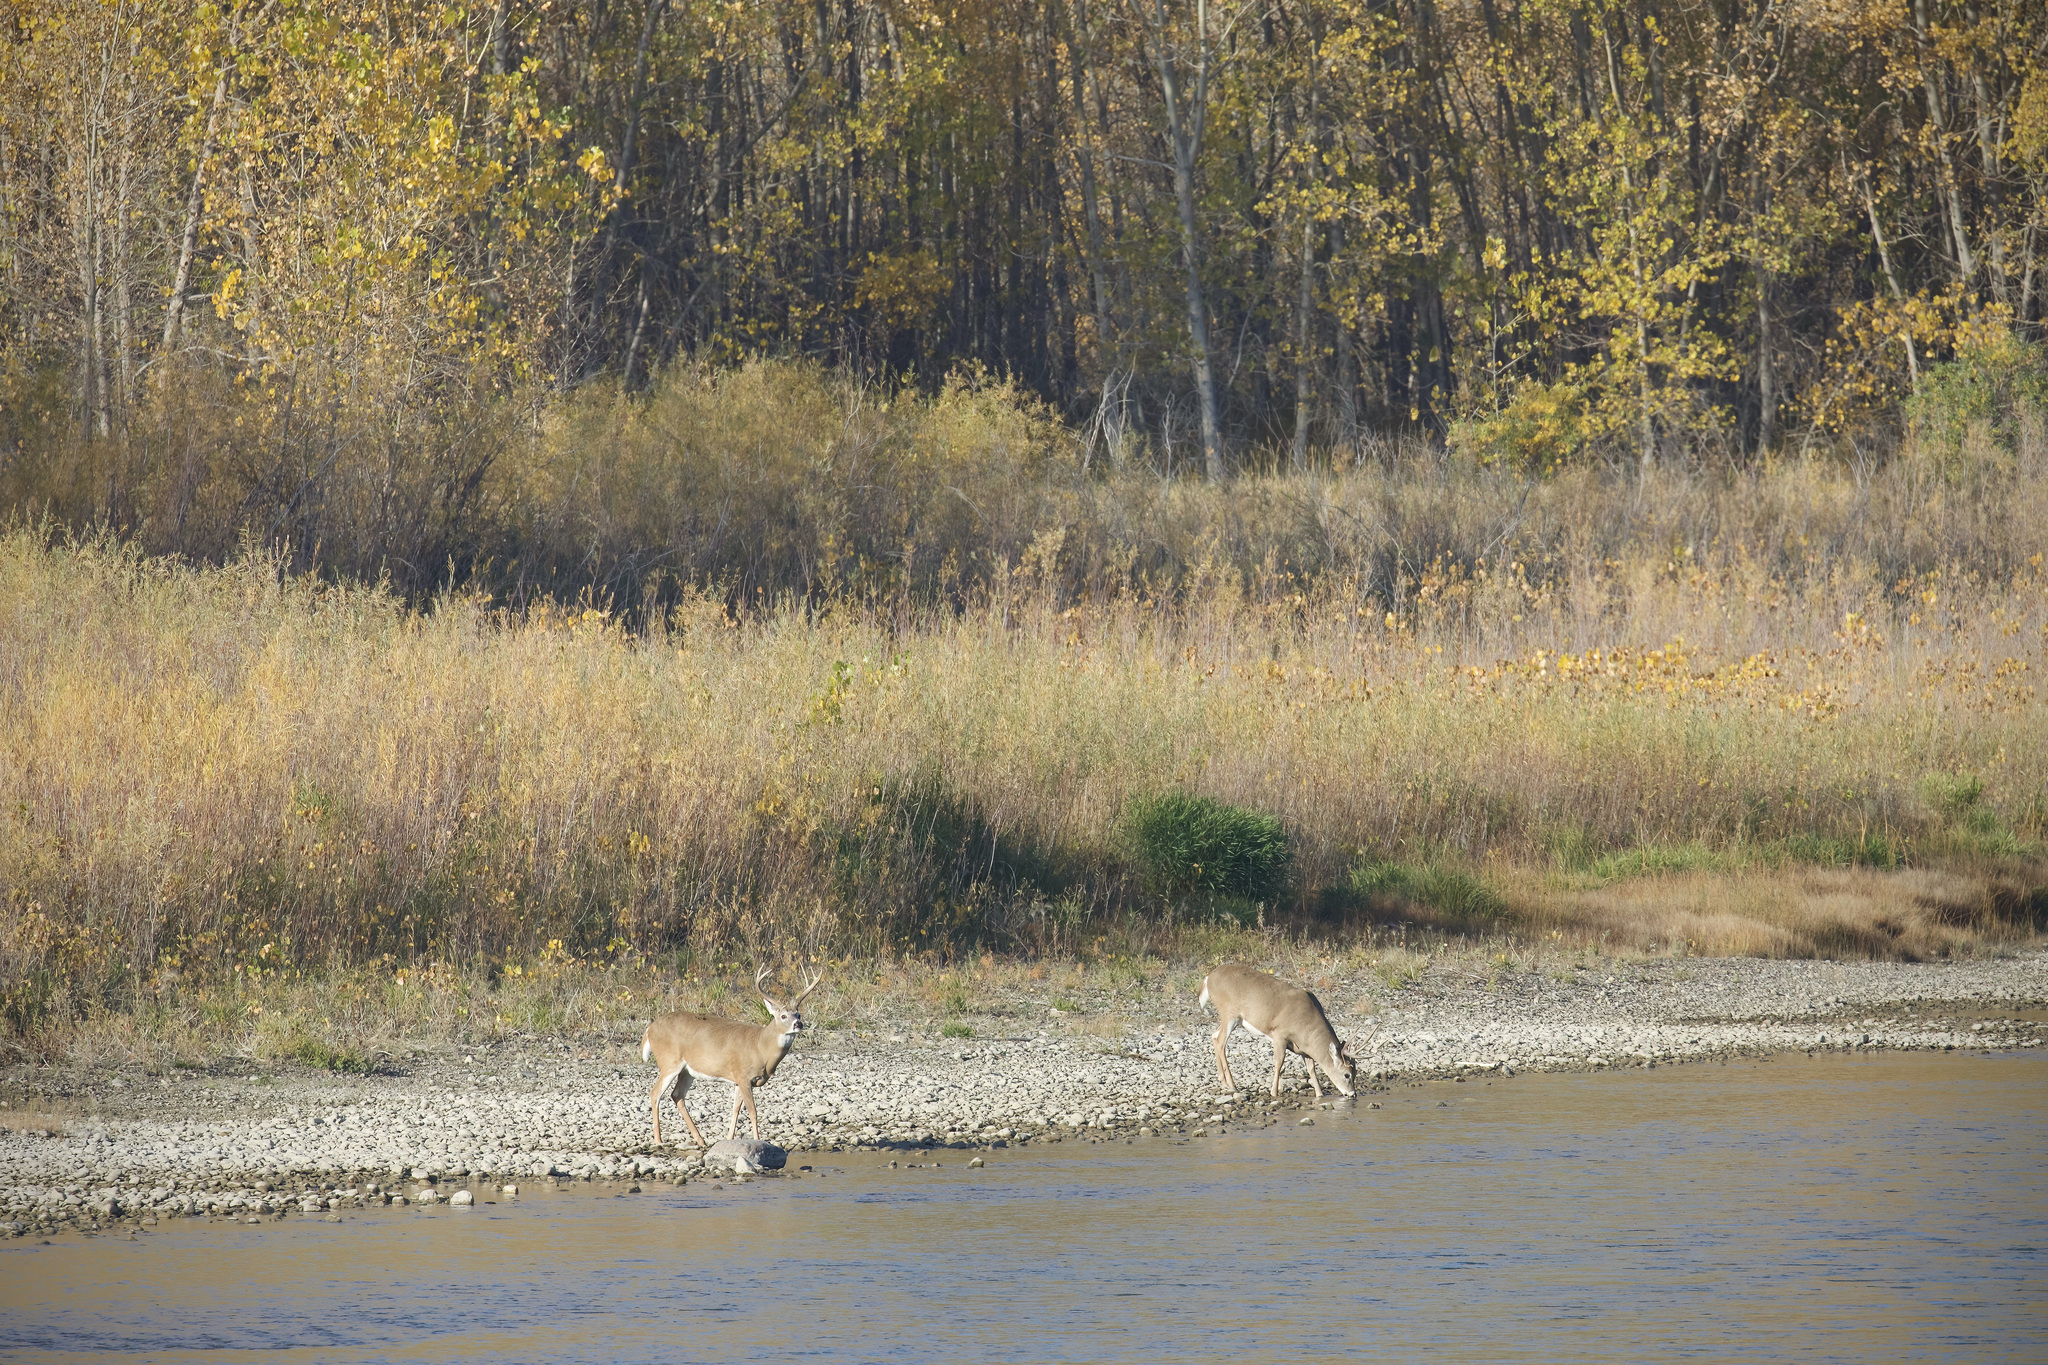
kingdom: Animalia
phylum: Chordata
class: Mammalia
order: Artiodactyla
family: Cervidae
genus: Odocoileus
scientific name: Odocoileus virginianus
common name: White-tailed deer
